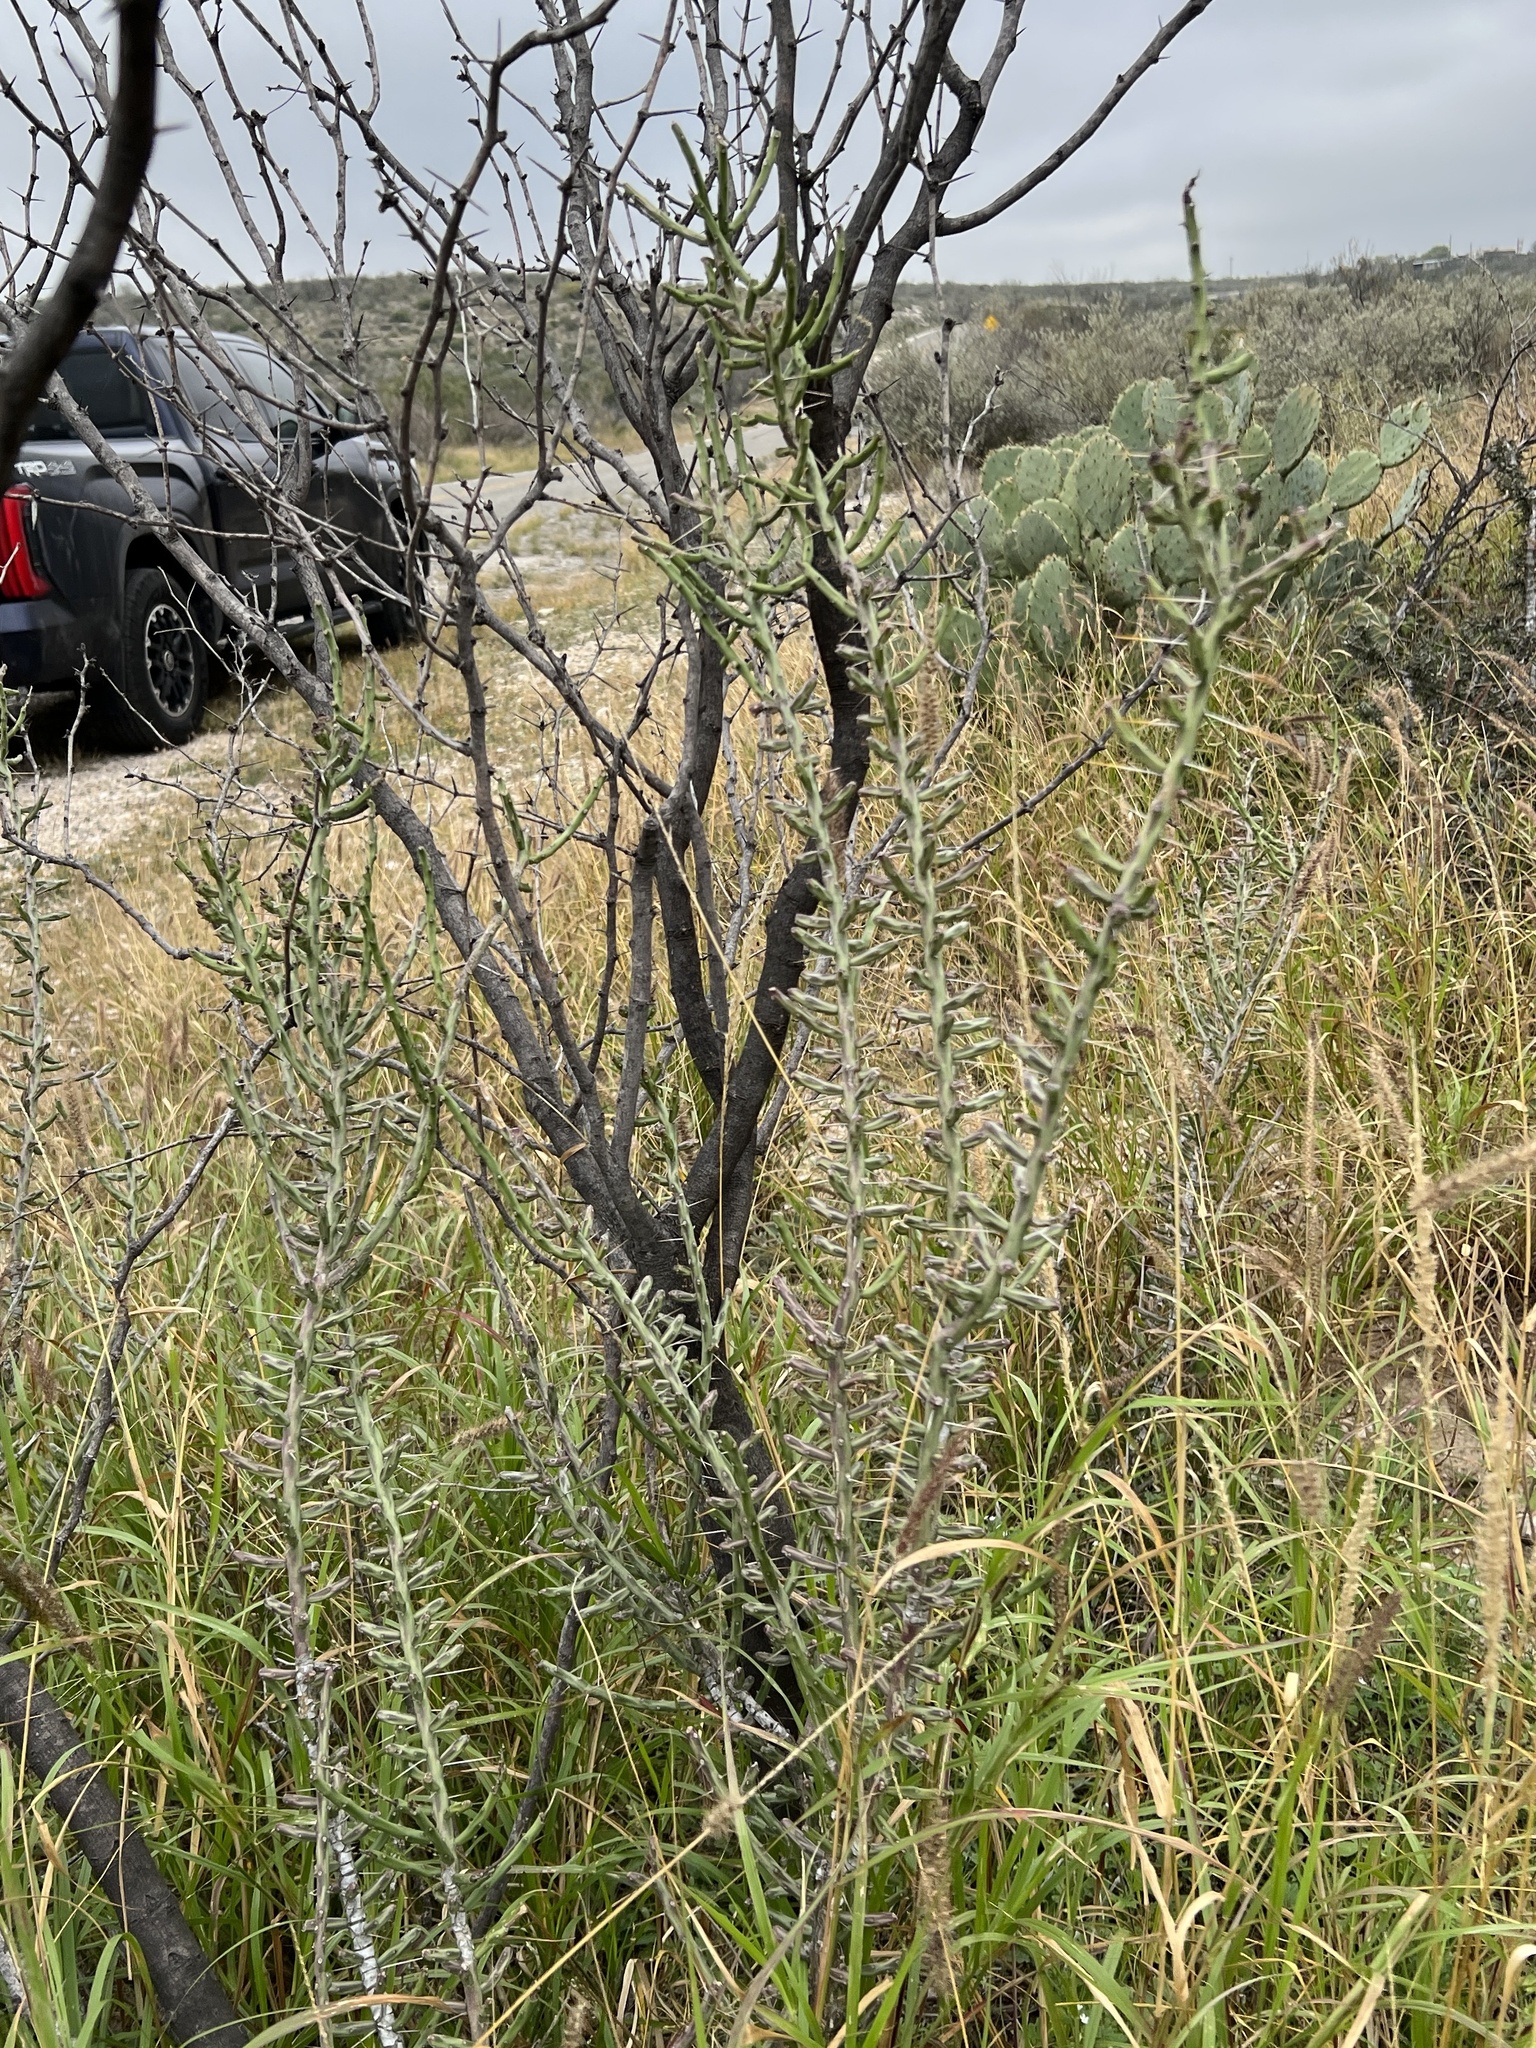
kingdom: Plantae
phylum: Tracheophyta
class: Magnoliopsida
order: Caryophyllales
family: Cactaceae
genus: Cylindropuntia
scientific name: Cylindropuntia leptocaulis
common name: Christmas cactus
